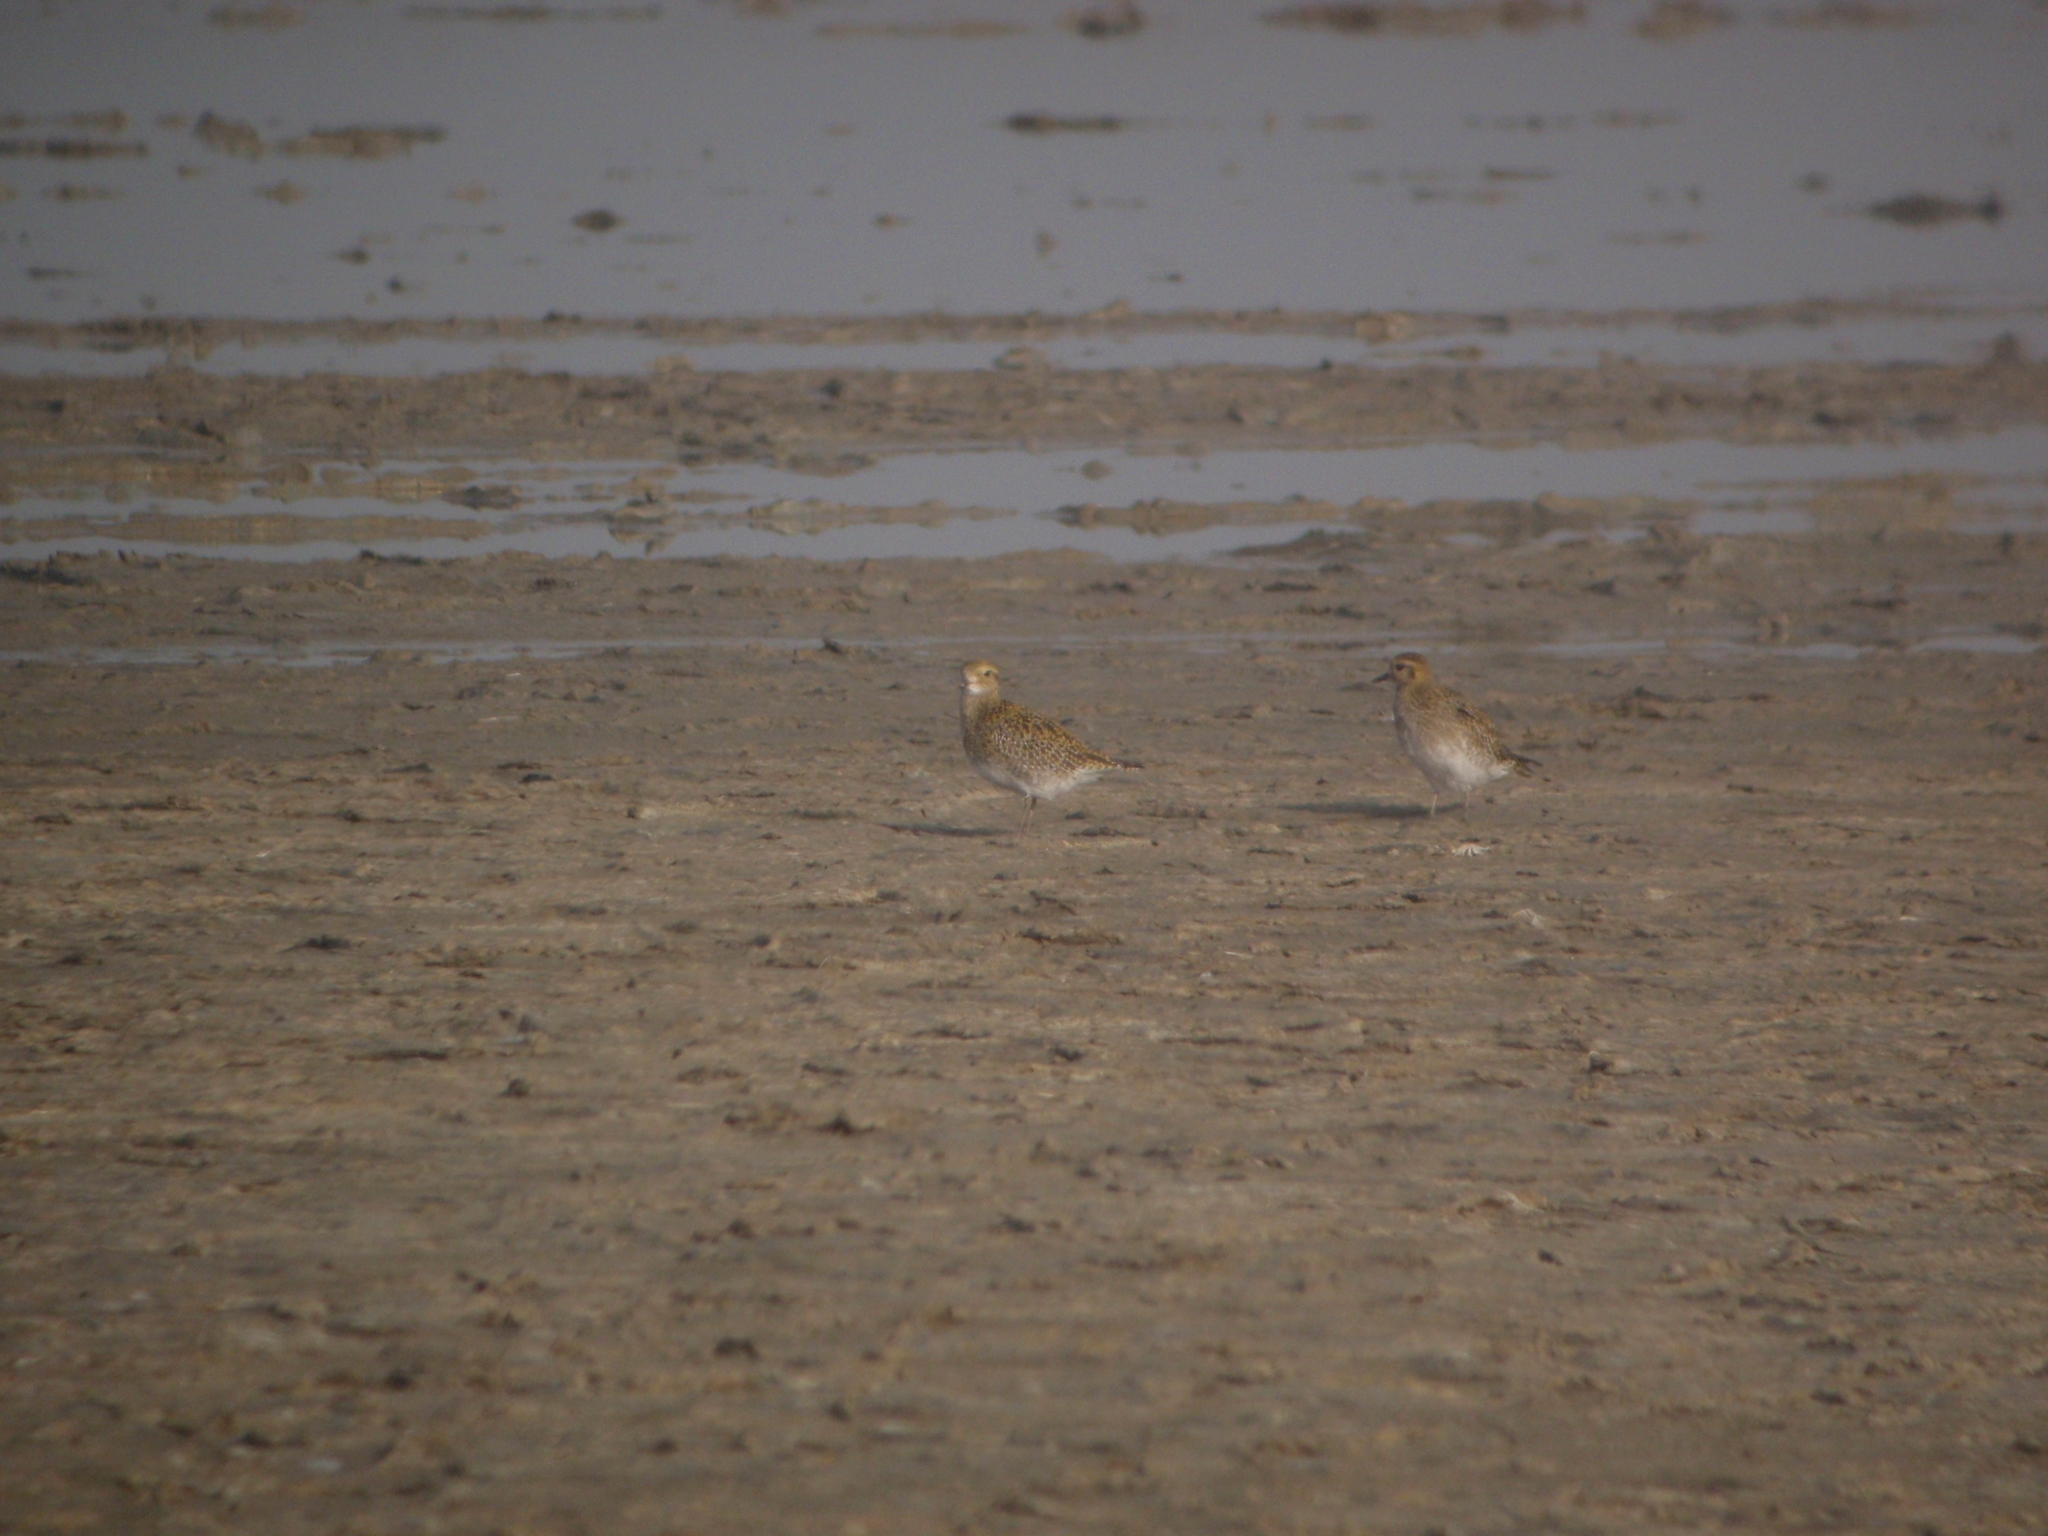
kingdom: Animalia
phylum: Chordata
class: Aves
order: Charadriiformes
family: Charadriidae
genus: Pluvialis
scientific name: Pluvialis apricaria
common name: European golden plover
